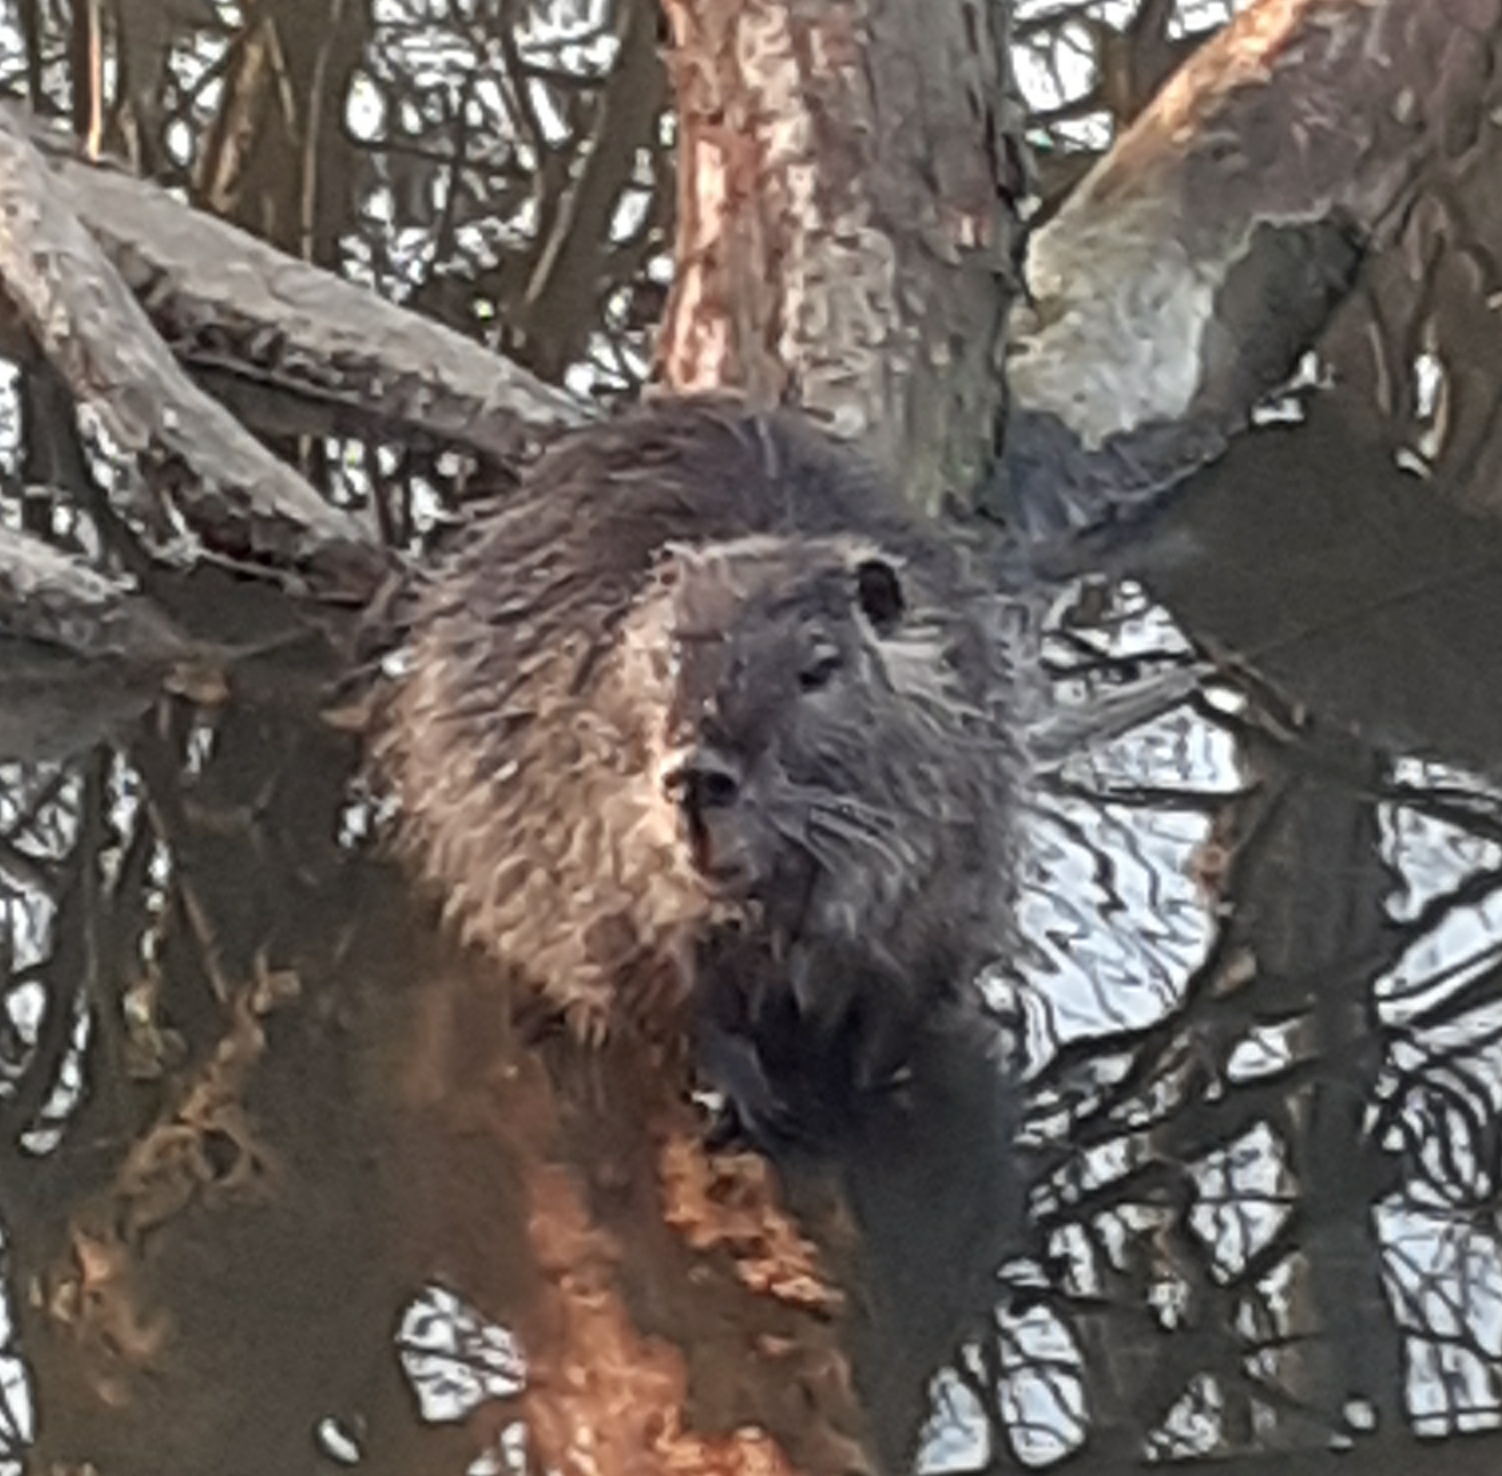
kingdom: Animalia
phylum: Chordata
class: Mammalia
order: Rodentia
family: Myocastoridae
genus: Myocastor
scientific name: Myocastor coypus
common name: Coypu
